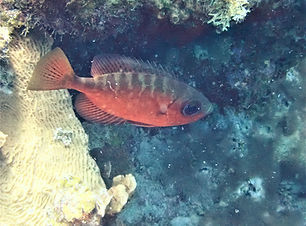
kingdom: Animalia
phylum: Chordata
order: Perciformes
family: Priacanthidae
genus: Heteropriacanthus
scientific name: Heteropriacanthus cruentatus
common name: Glasseye
